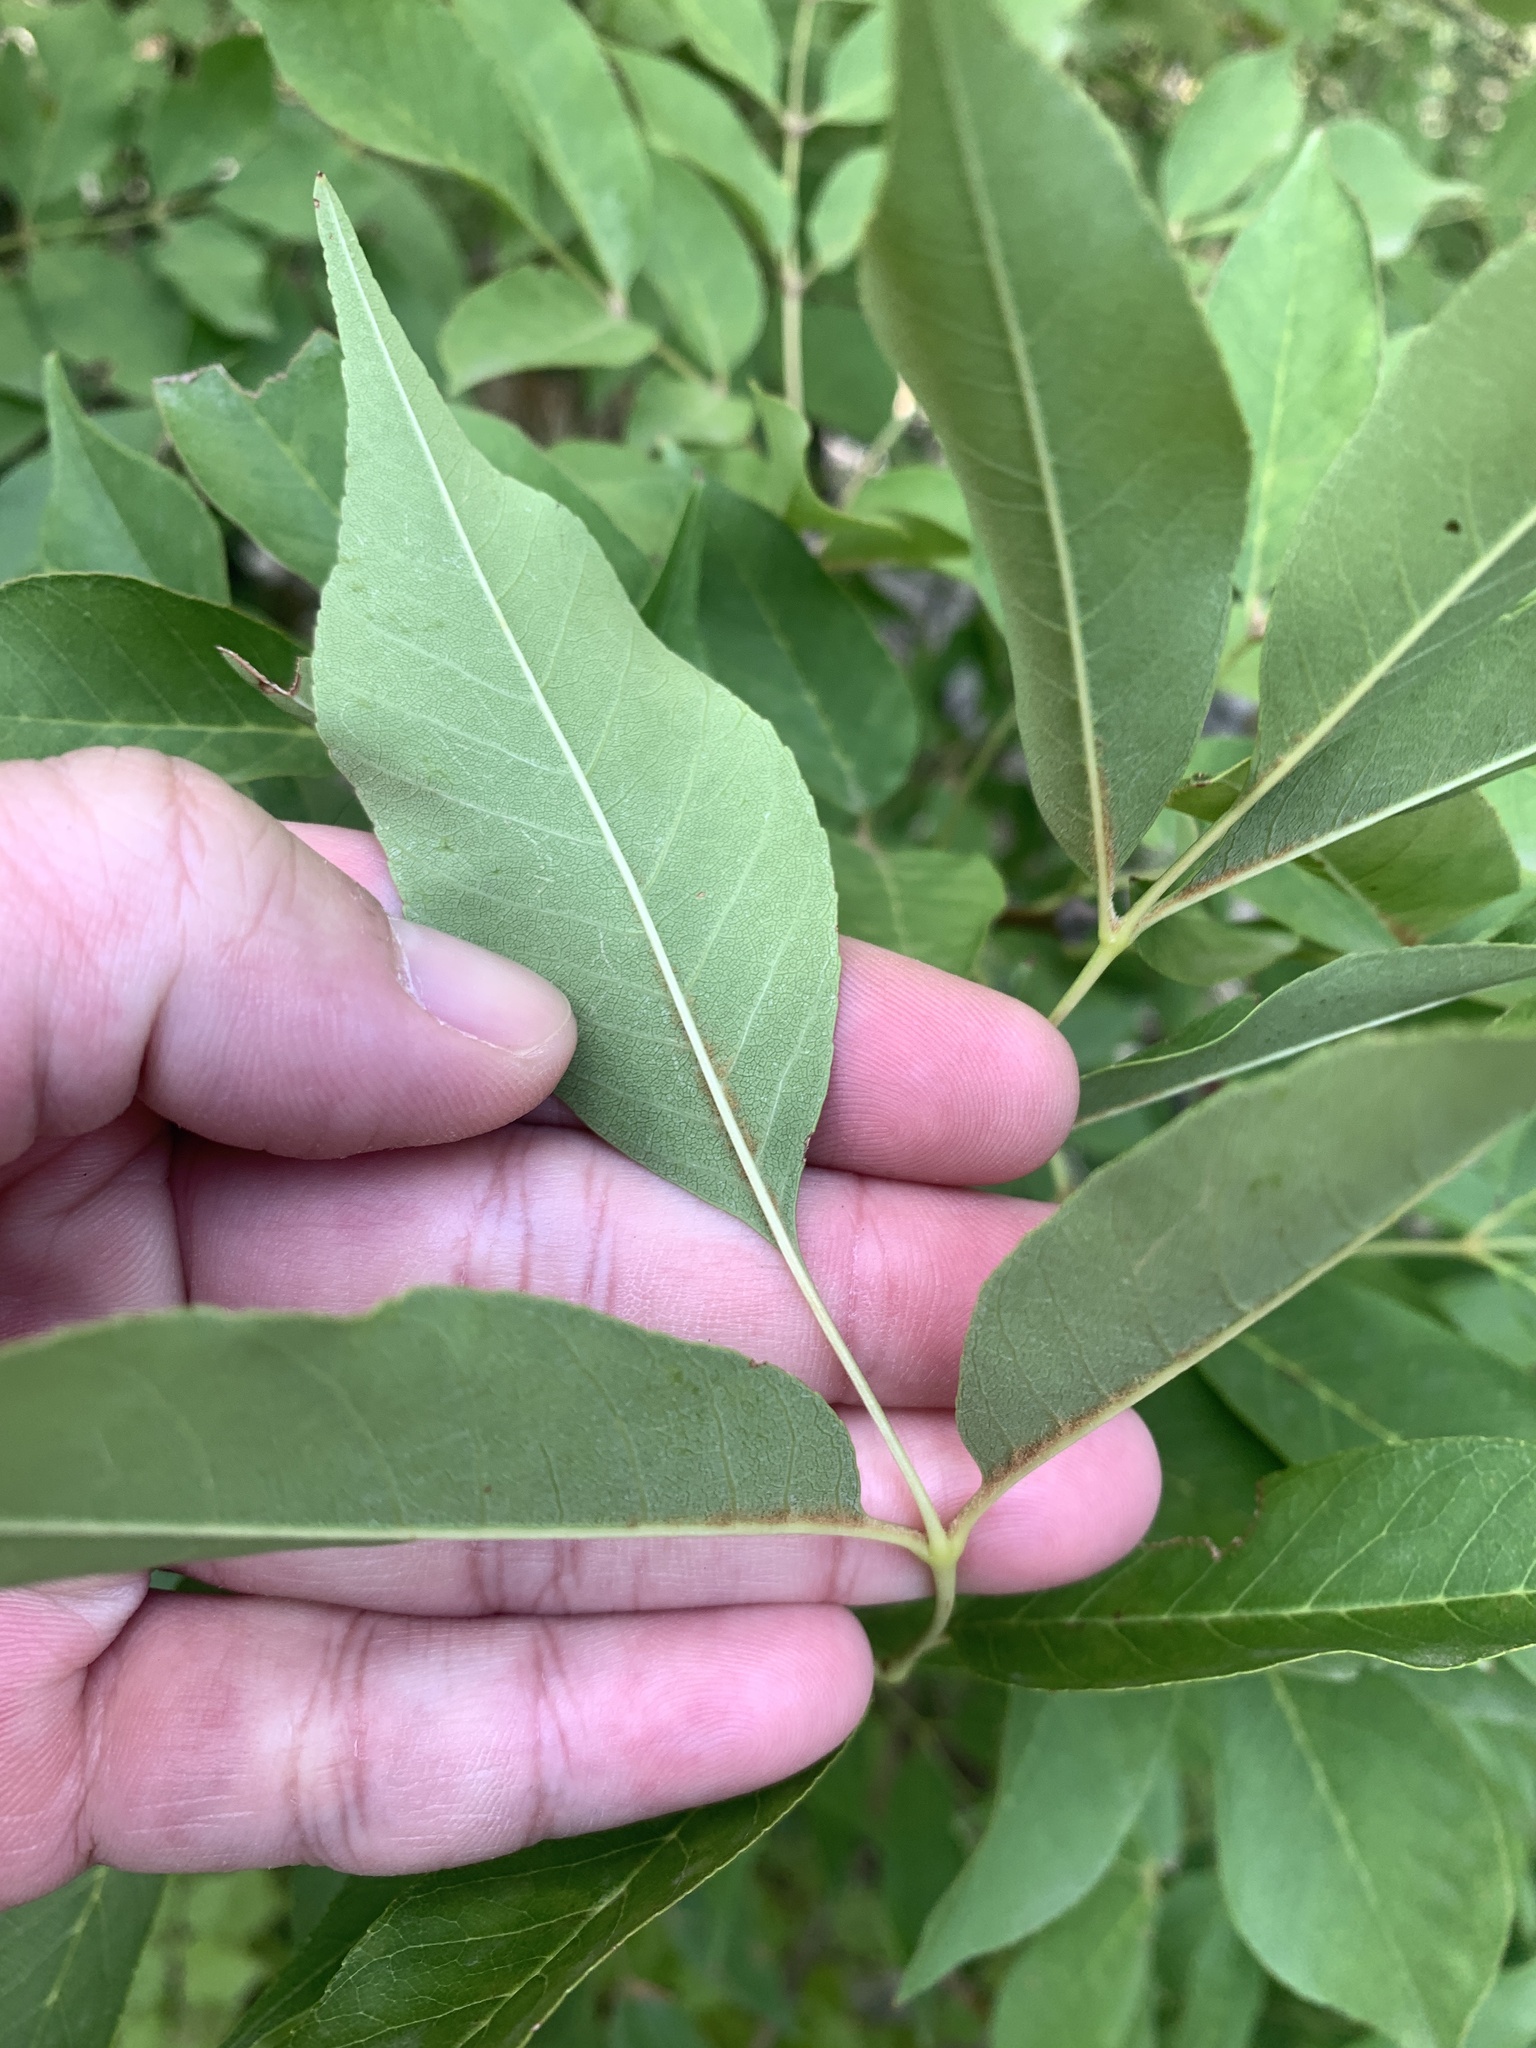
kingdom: Plantae
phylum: Tracheophyta
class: Magnoliopsida
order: Lamiales
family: Oleaceae
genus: Fraxinus
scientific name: Fraxinus ornus
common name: Manna ash
